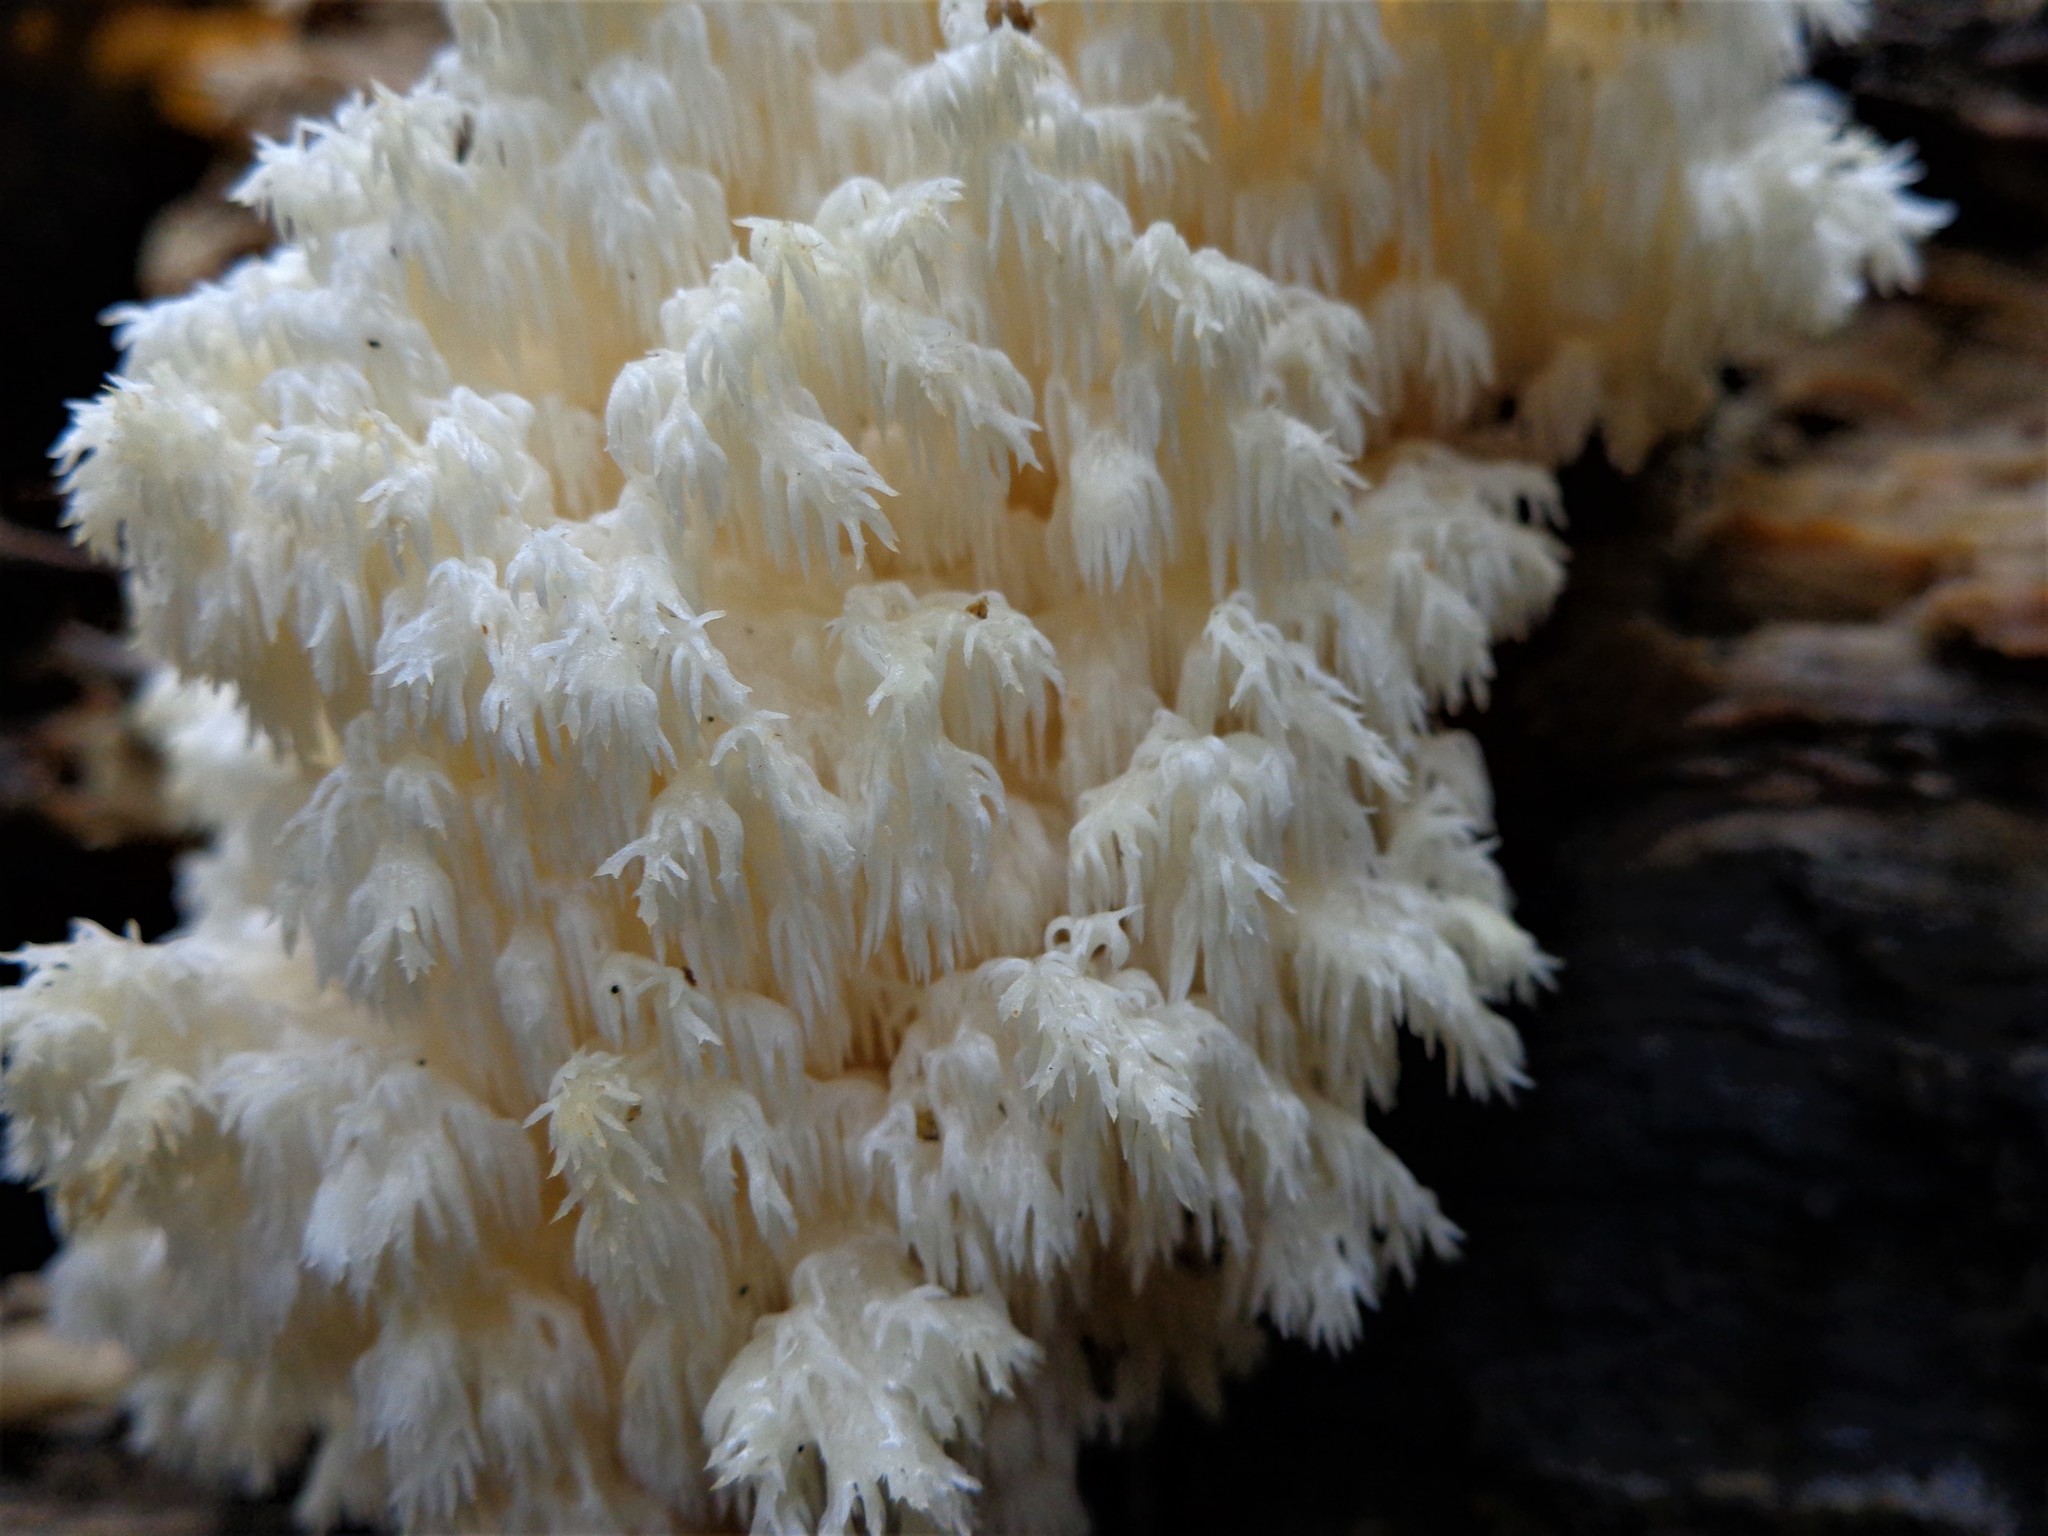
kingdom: Fungi
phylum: Basidiomycota
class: Agaricomycetes
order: Russulales
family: Hericiaceae
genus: Hericium
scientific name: Hericium coralloides
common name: Coral tooth
